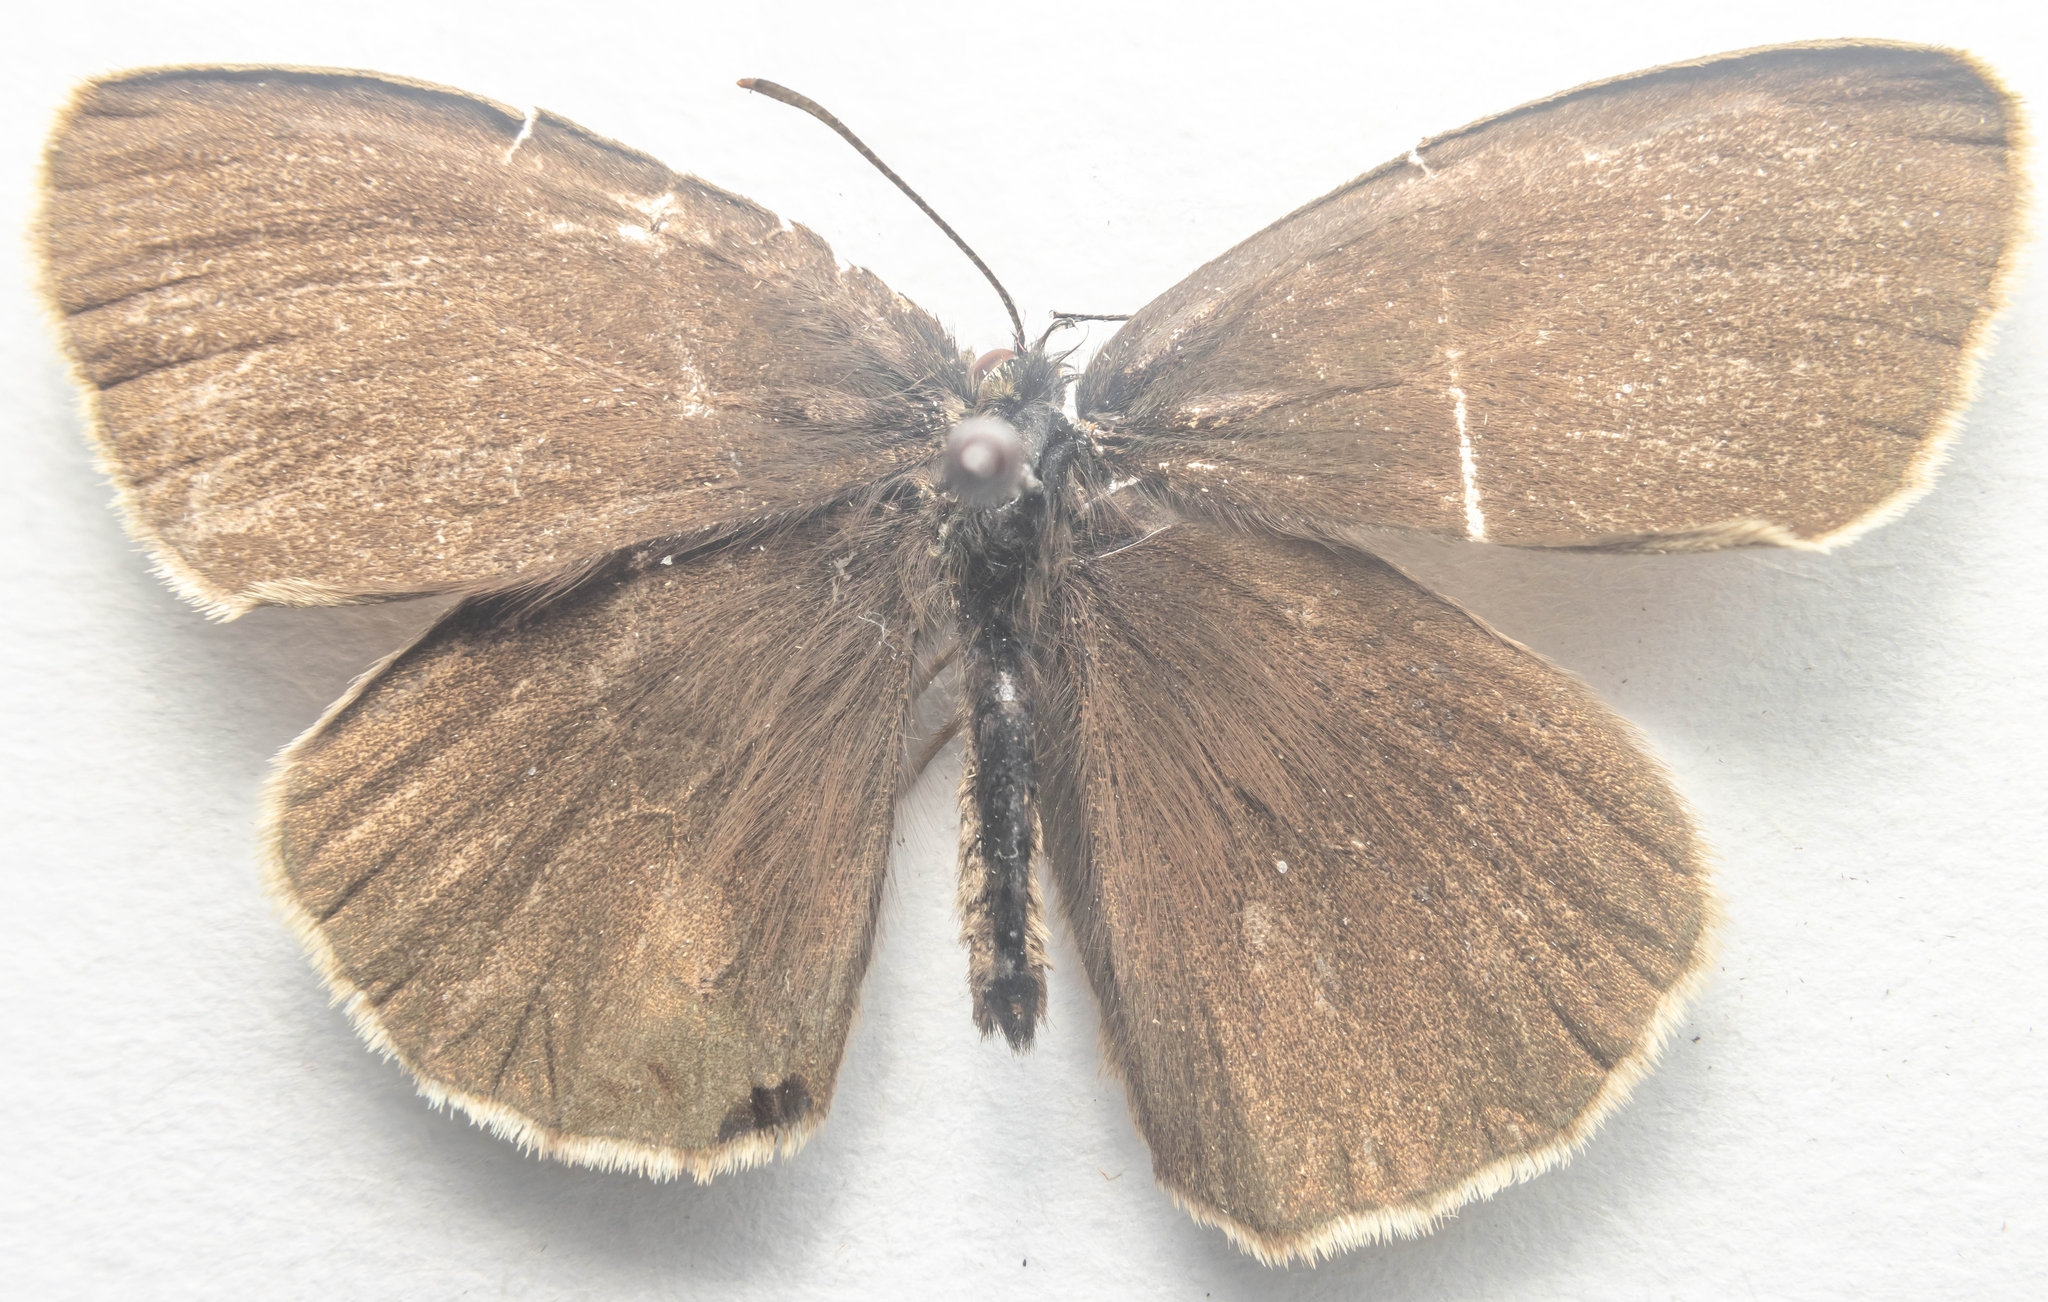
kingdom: Animalia
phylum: Arthropoda
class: Insecta
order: Lepidoptera
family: Nymphalidae
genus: Aphantopus
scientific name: Aphantopus hyperantus
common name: Ringlet
